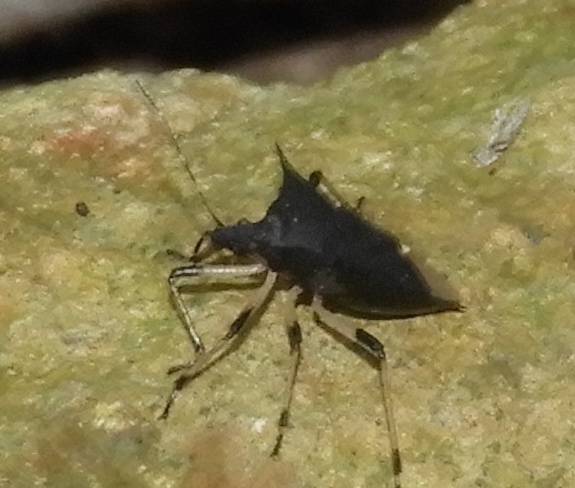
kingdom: Animalia
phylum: Arthropoda
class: Insecta
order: Hemiptera
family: Pentatomidae
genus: Proxys
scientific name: Proxys punctulatus
